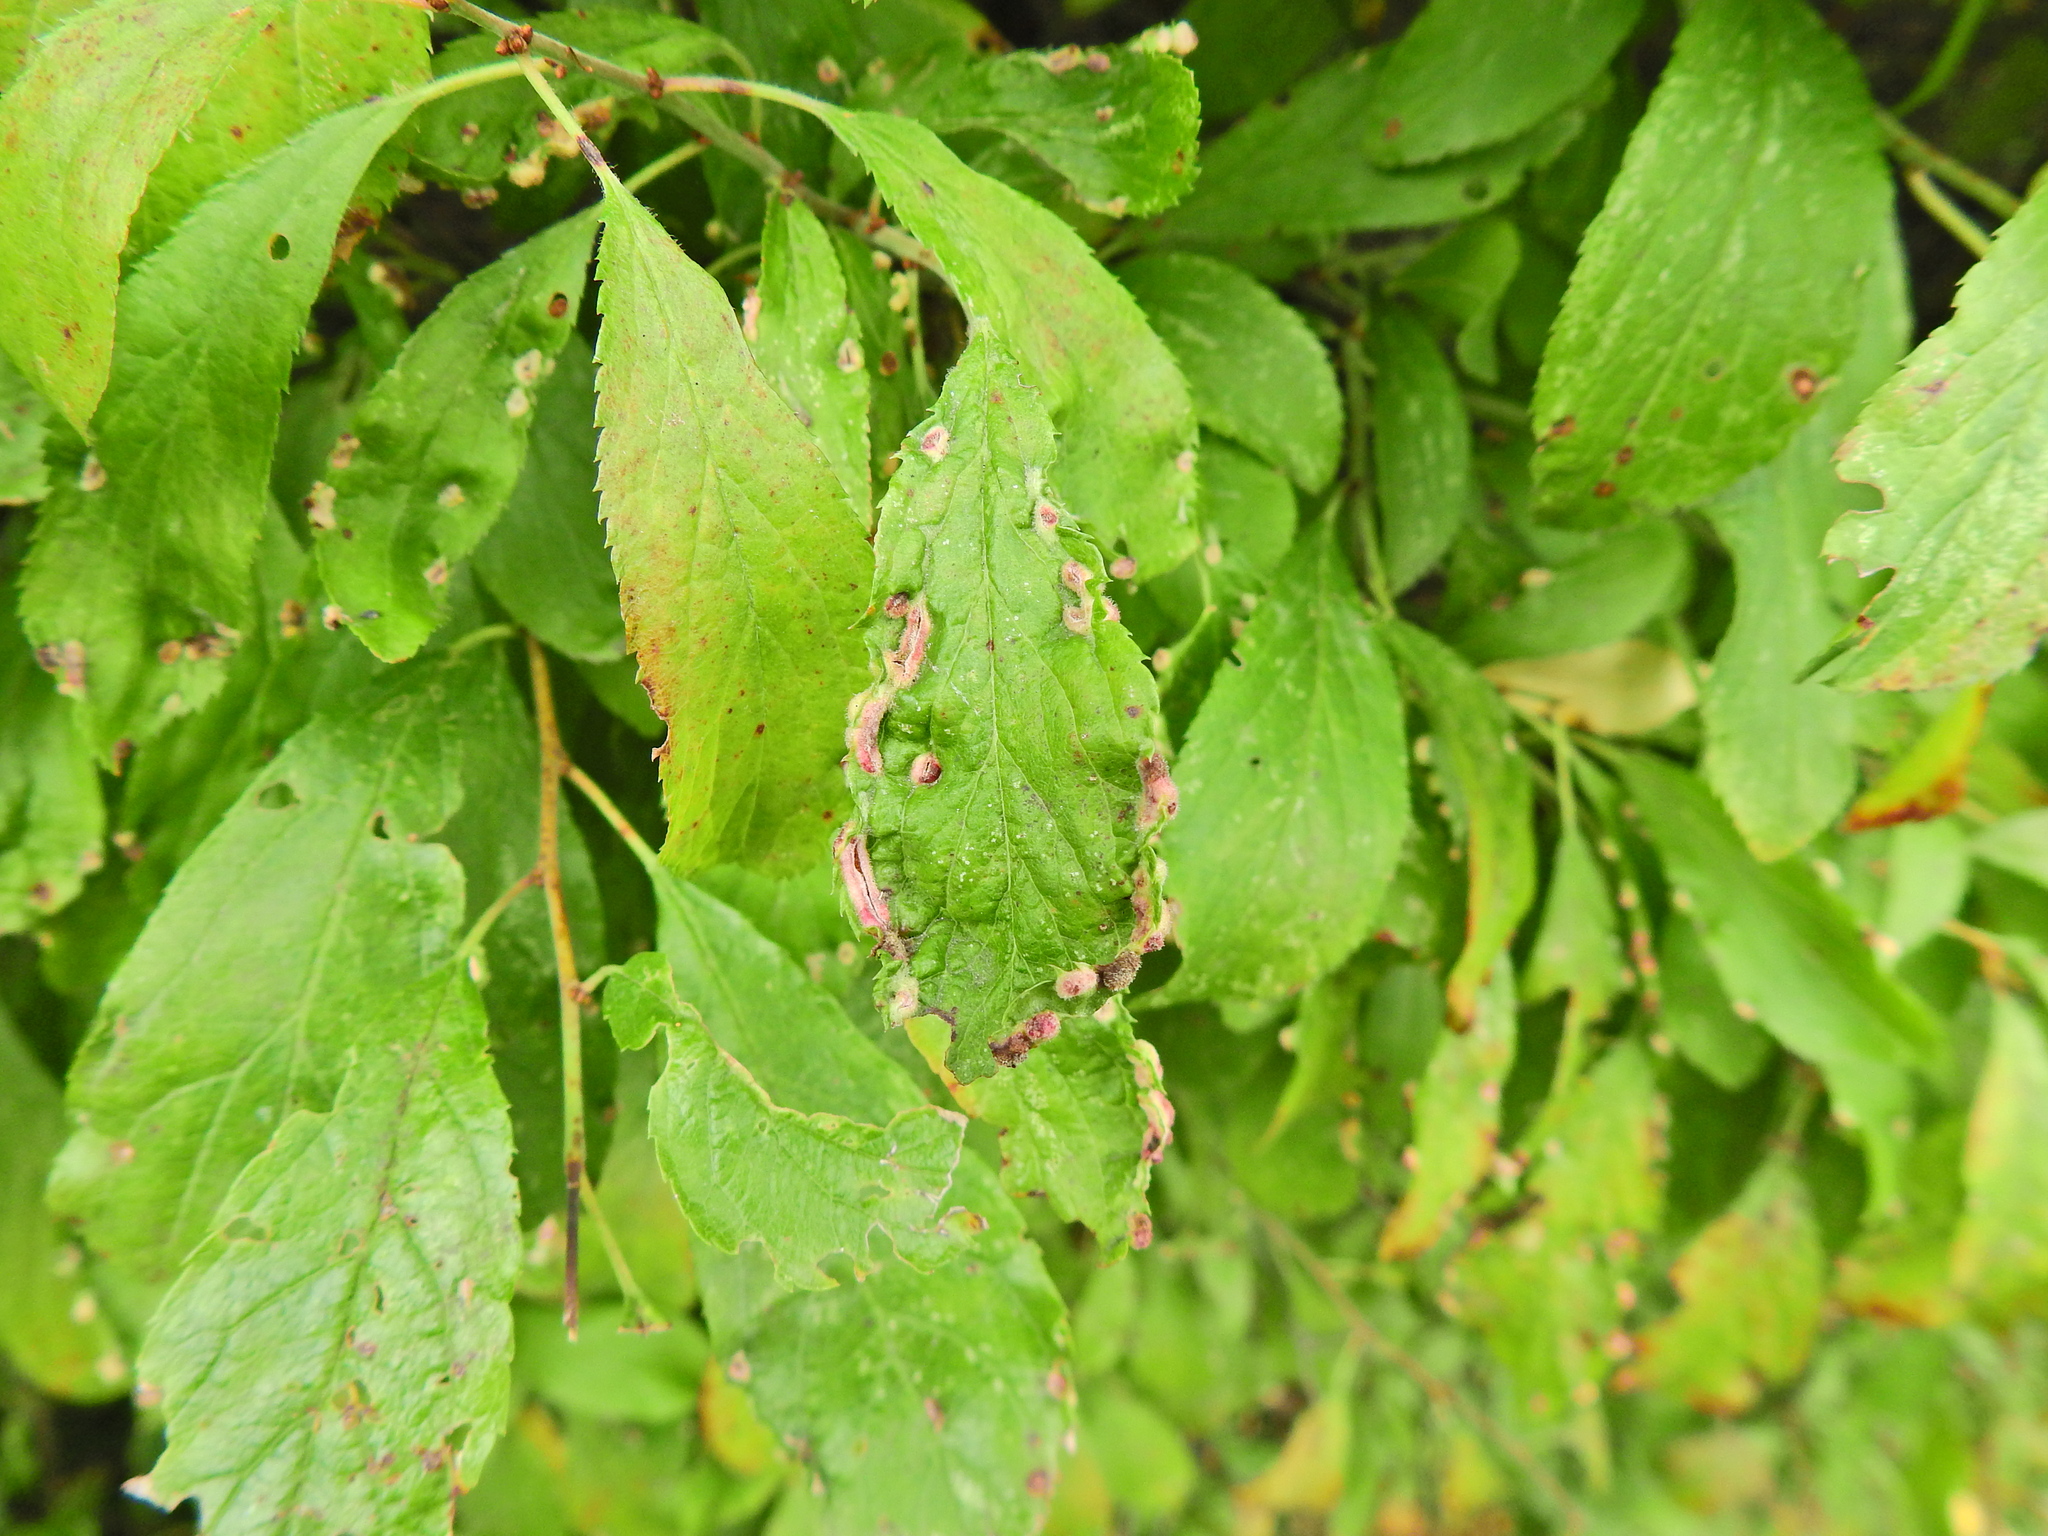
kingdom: Animalia
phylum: Arthropoda
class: Arachnida
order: Trombidiformes
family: Eriophyidae
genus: Eriophyes
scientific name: Eriophyes similis
